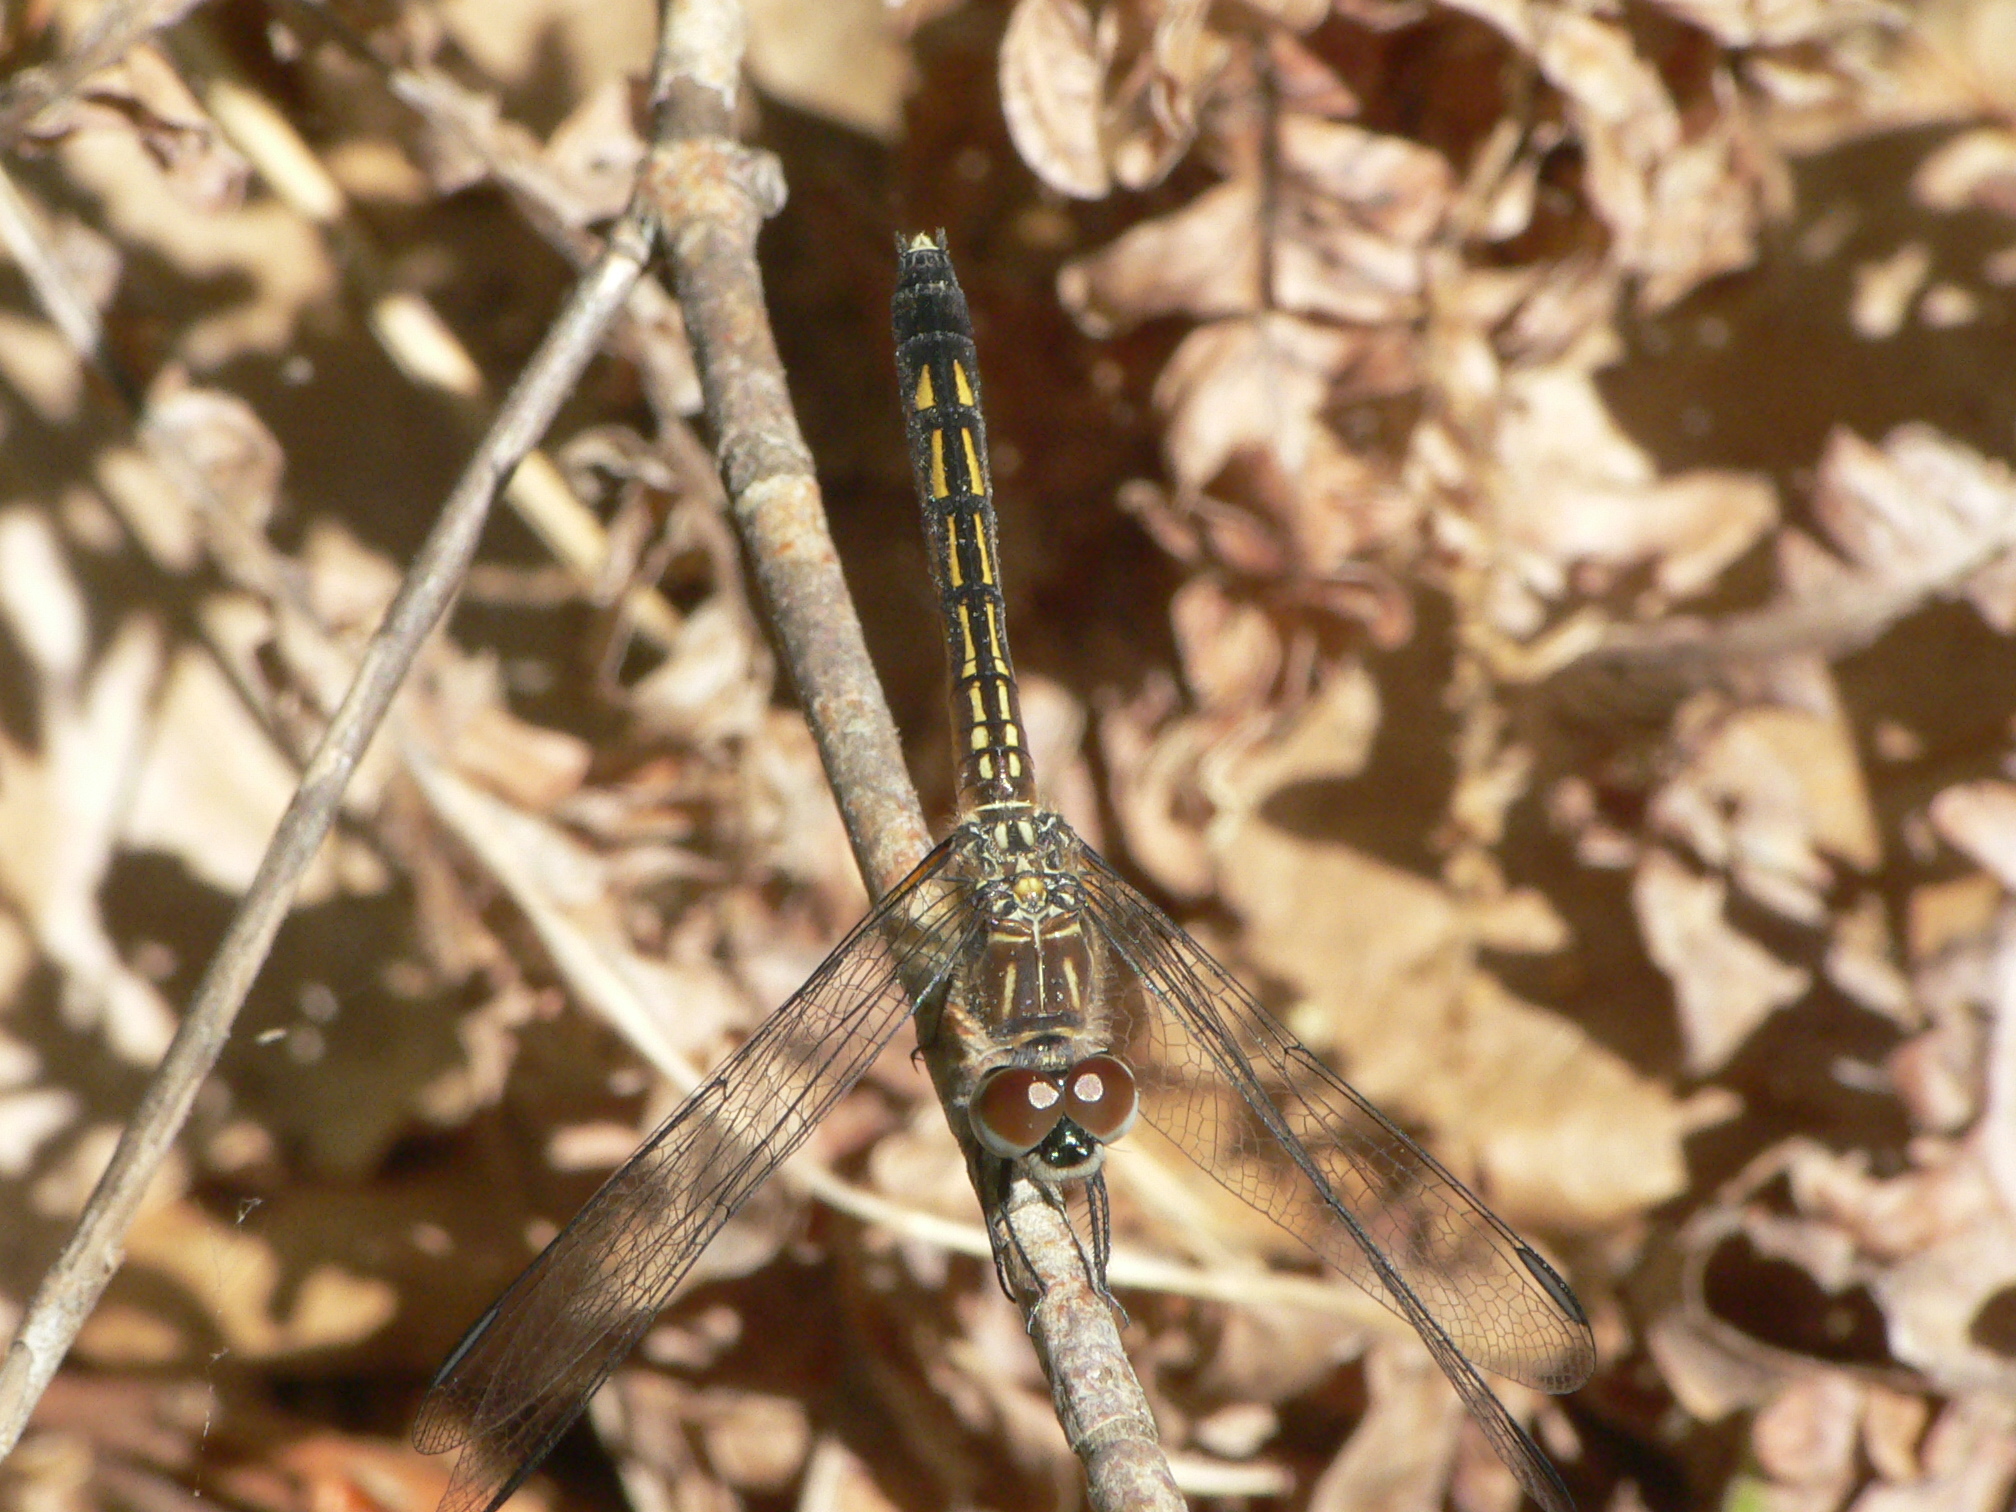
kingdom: Animalia
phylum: Arthropoda
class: Insecta
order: Odonata
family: Libellulidae
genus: Pachydiplax
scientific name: Pachydiplax longipennis
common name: Blue dasher
